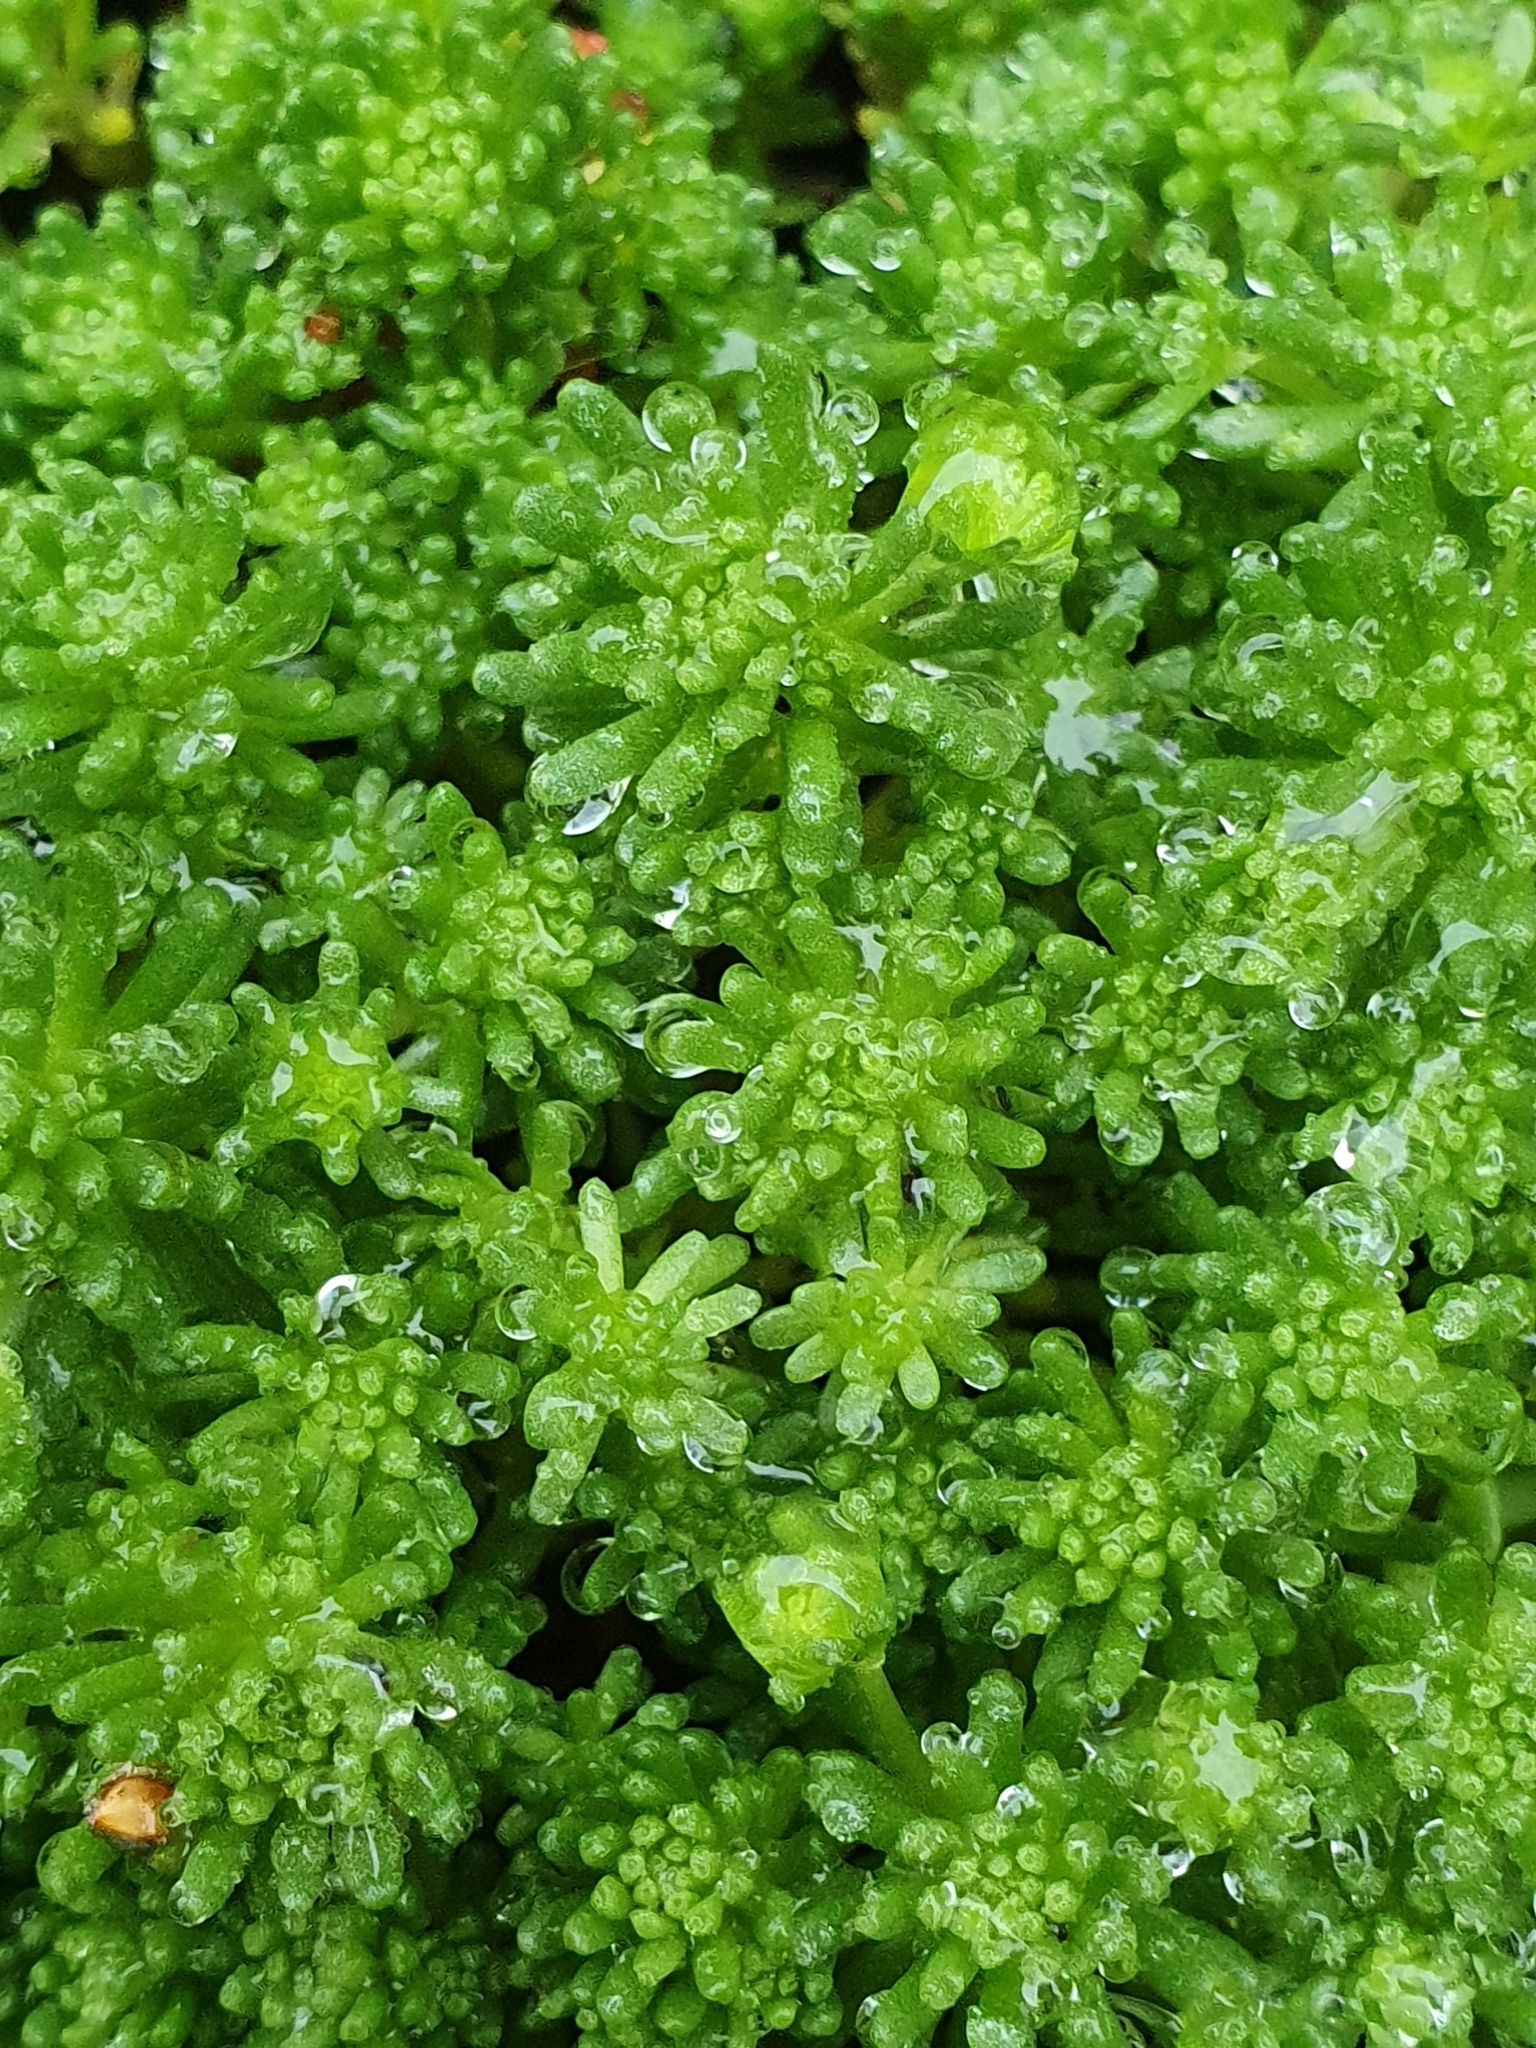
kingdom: Plantae
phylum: Tracheophyta
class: Magnoliopsida
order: Saxifragales
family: Crassulaceae
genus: Sedum
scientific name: Sedum lydium
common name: Least stonecrop
